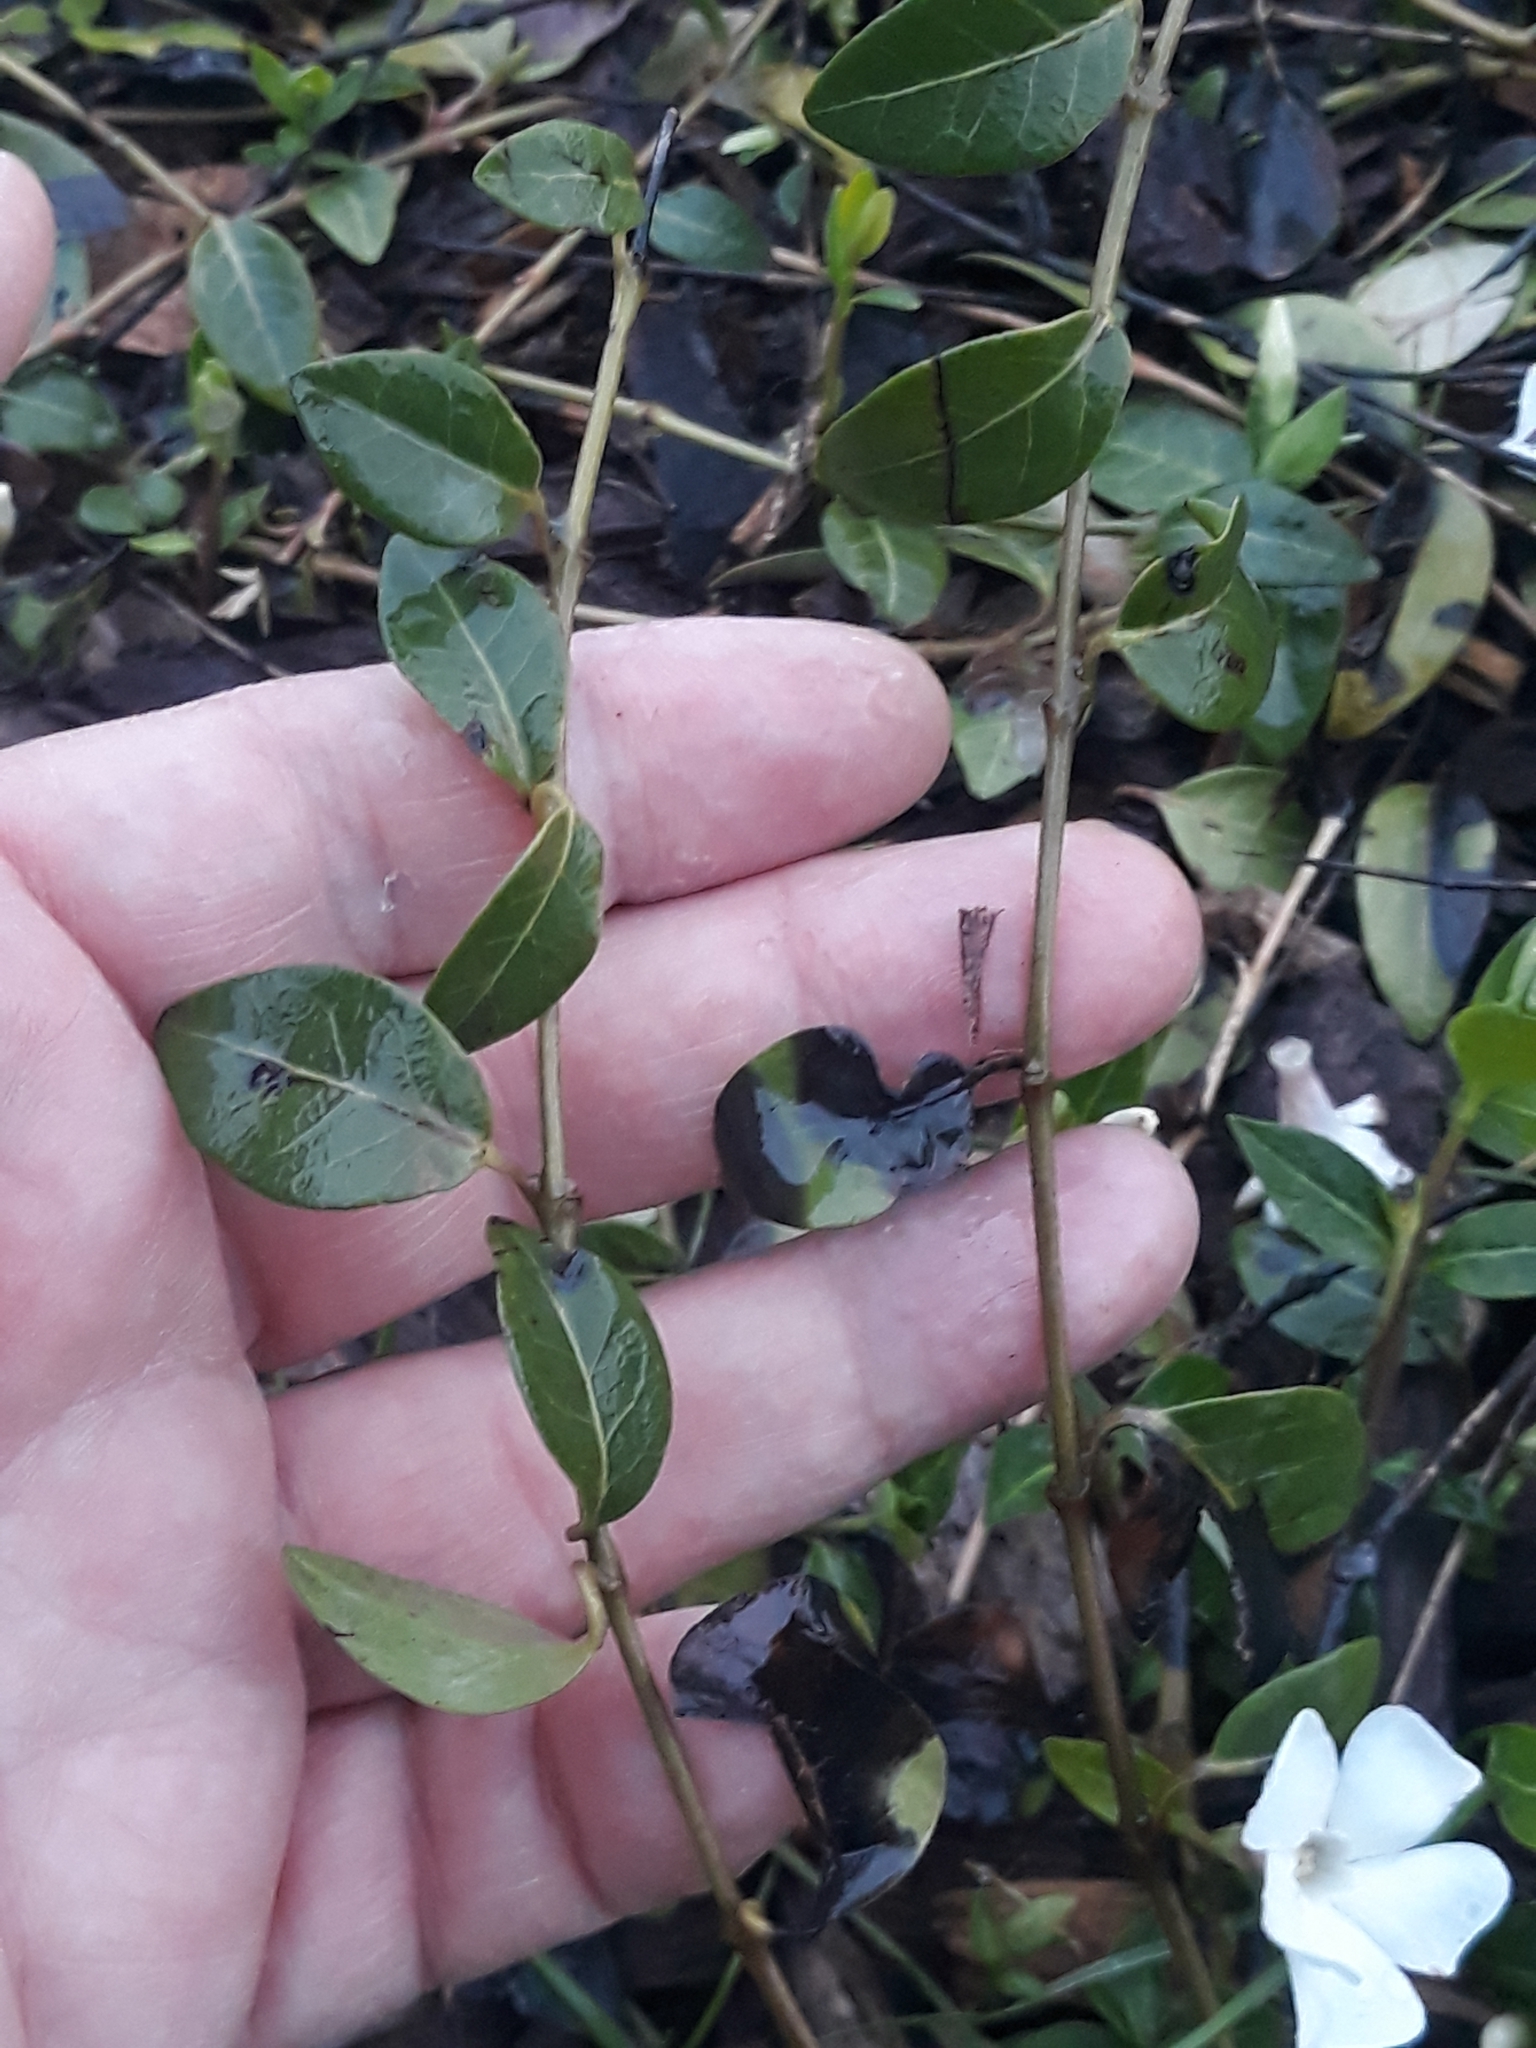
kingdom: Plantae
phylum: Tracheophyta
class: Magnoliopsida
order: Gentianales
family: Apocynaceae
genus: Vinca
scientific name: Vinca minor
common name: Lesser periwinkle
